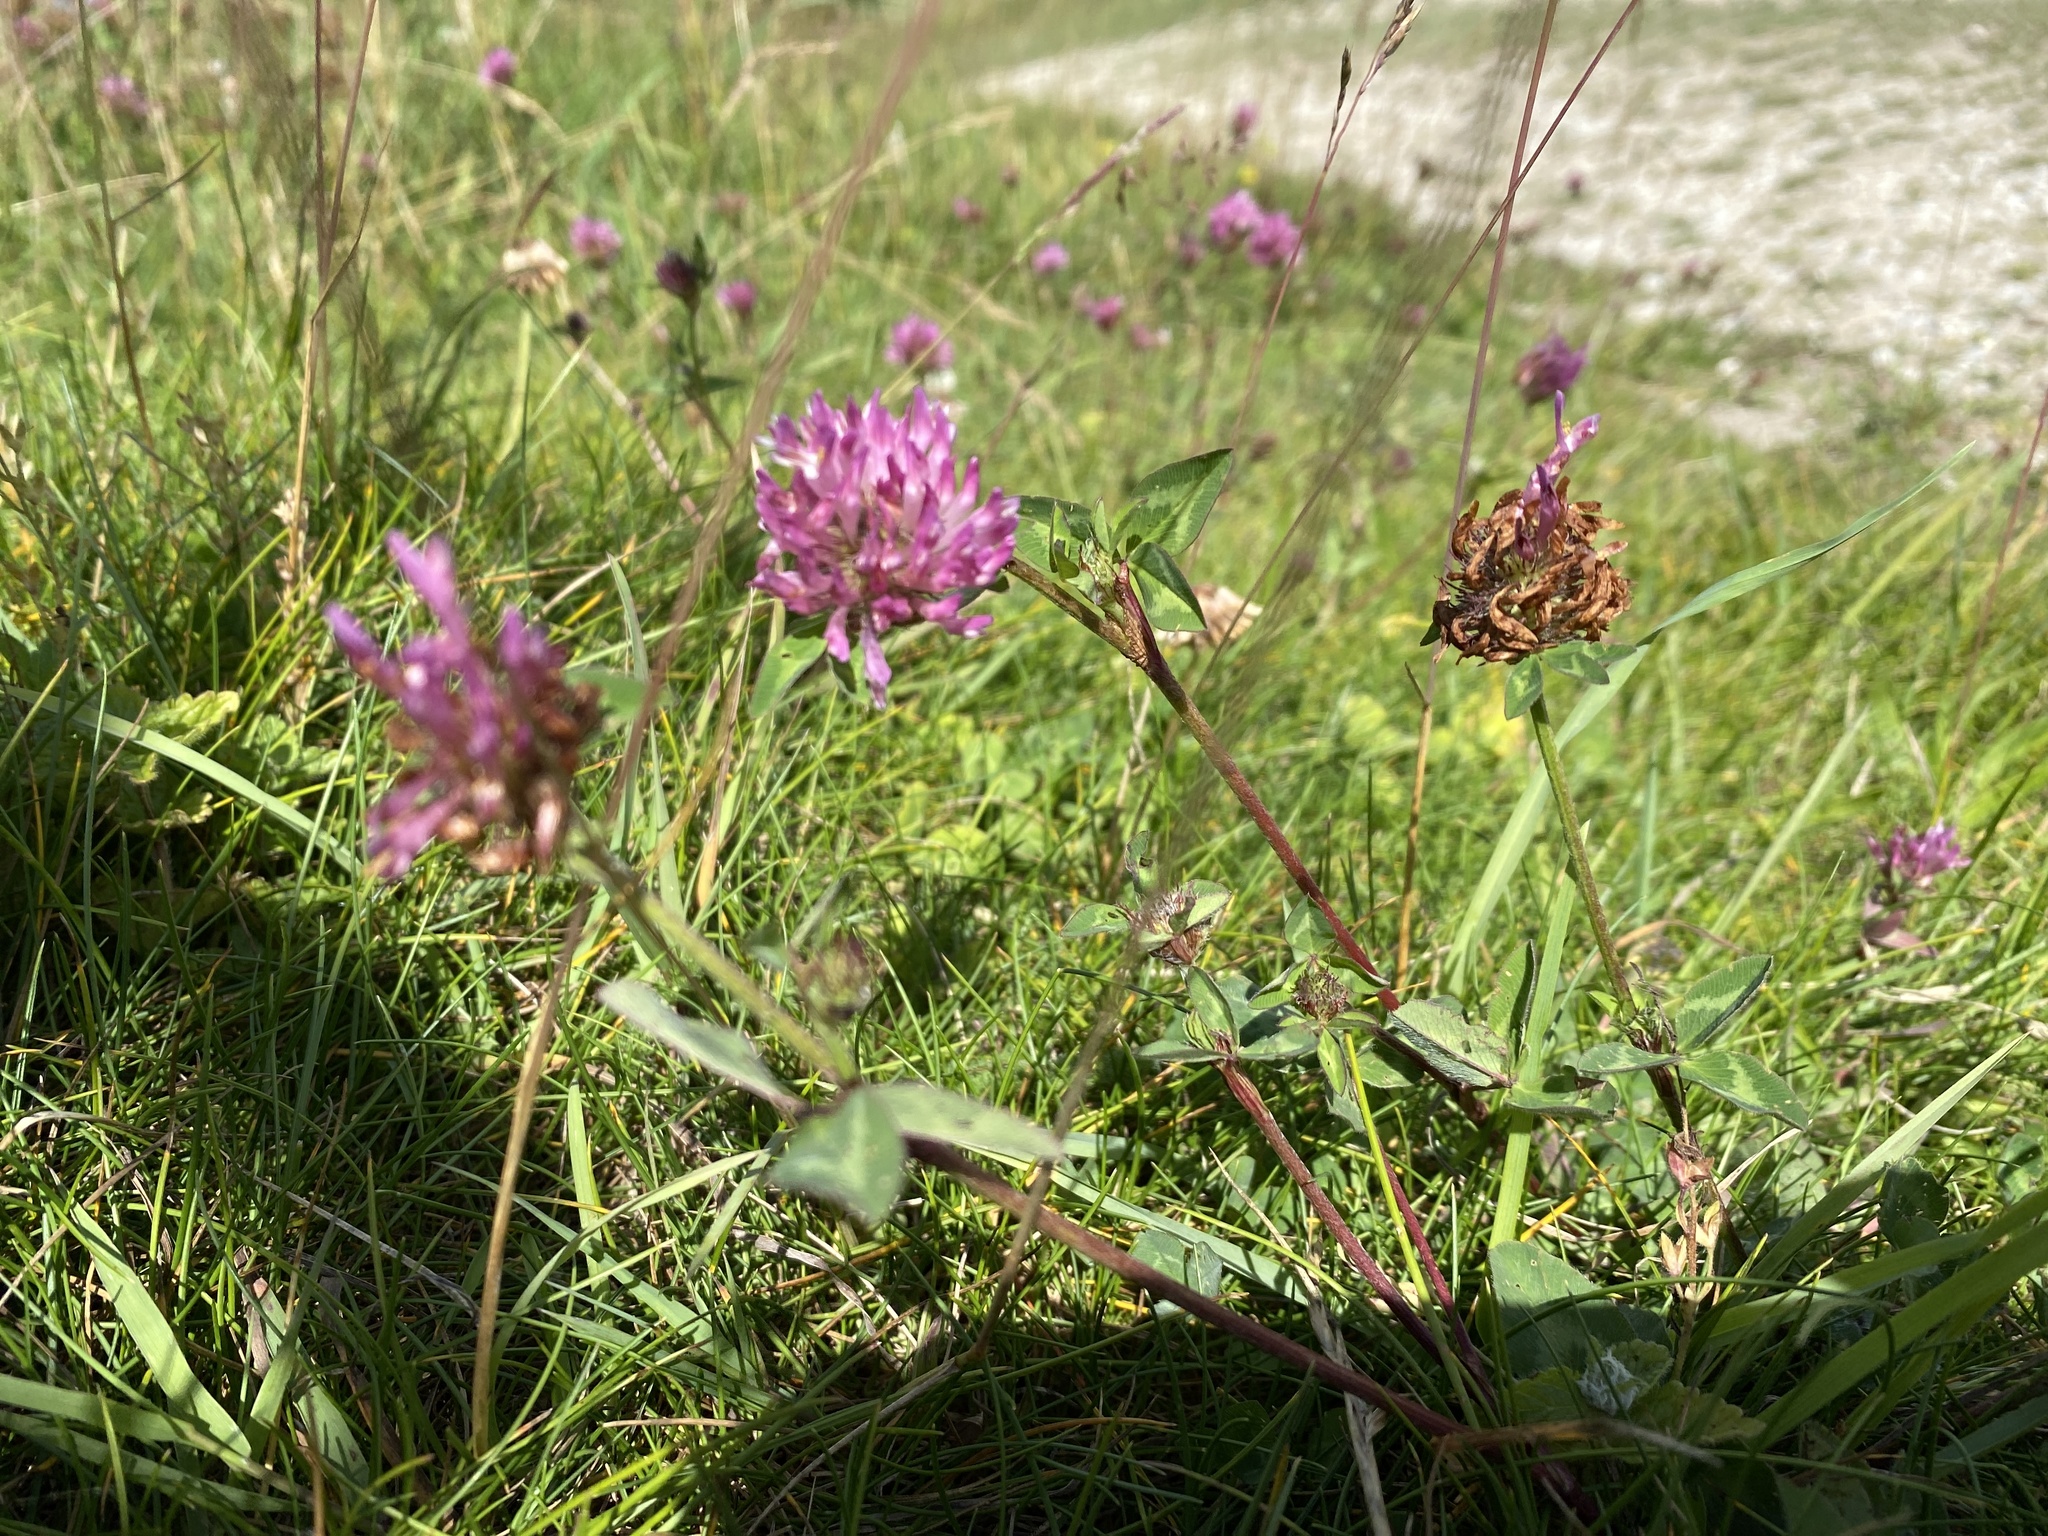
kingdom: Plantae
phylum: Tracheophyta
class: Magnoliopsida
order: Fabales
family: Fabaceae
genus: Trifolium
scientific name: Trifolium pratense
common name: Red clover
